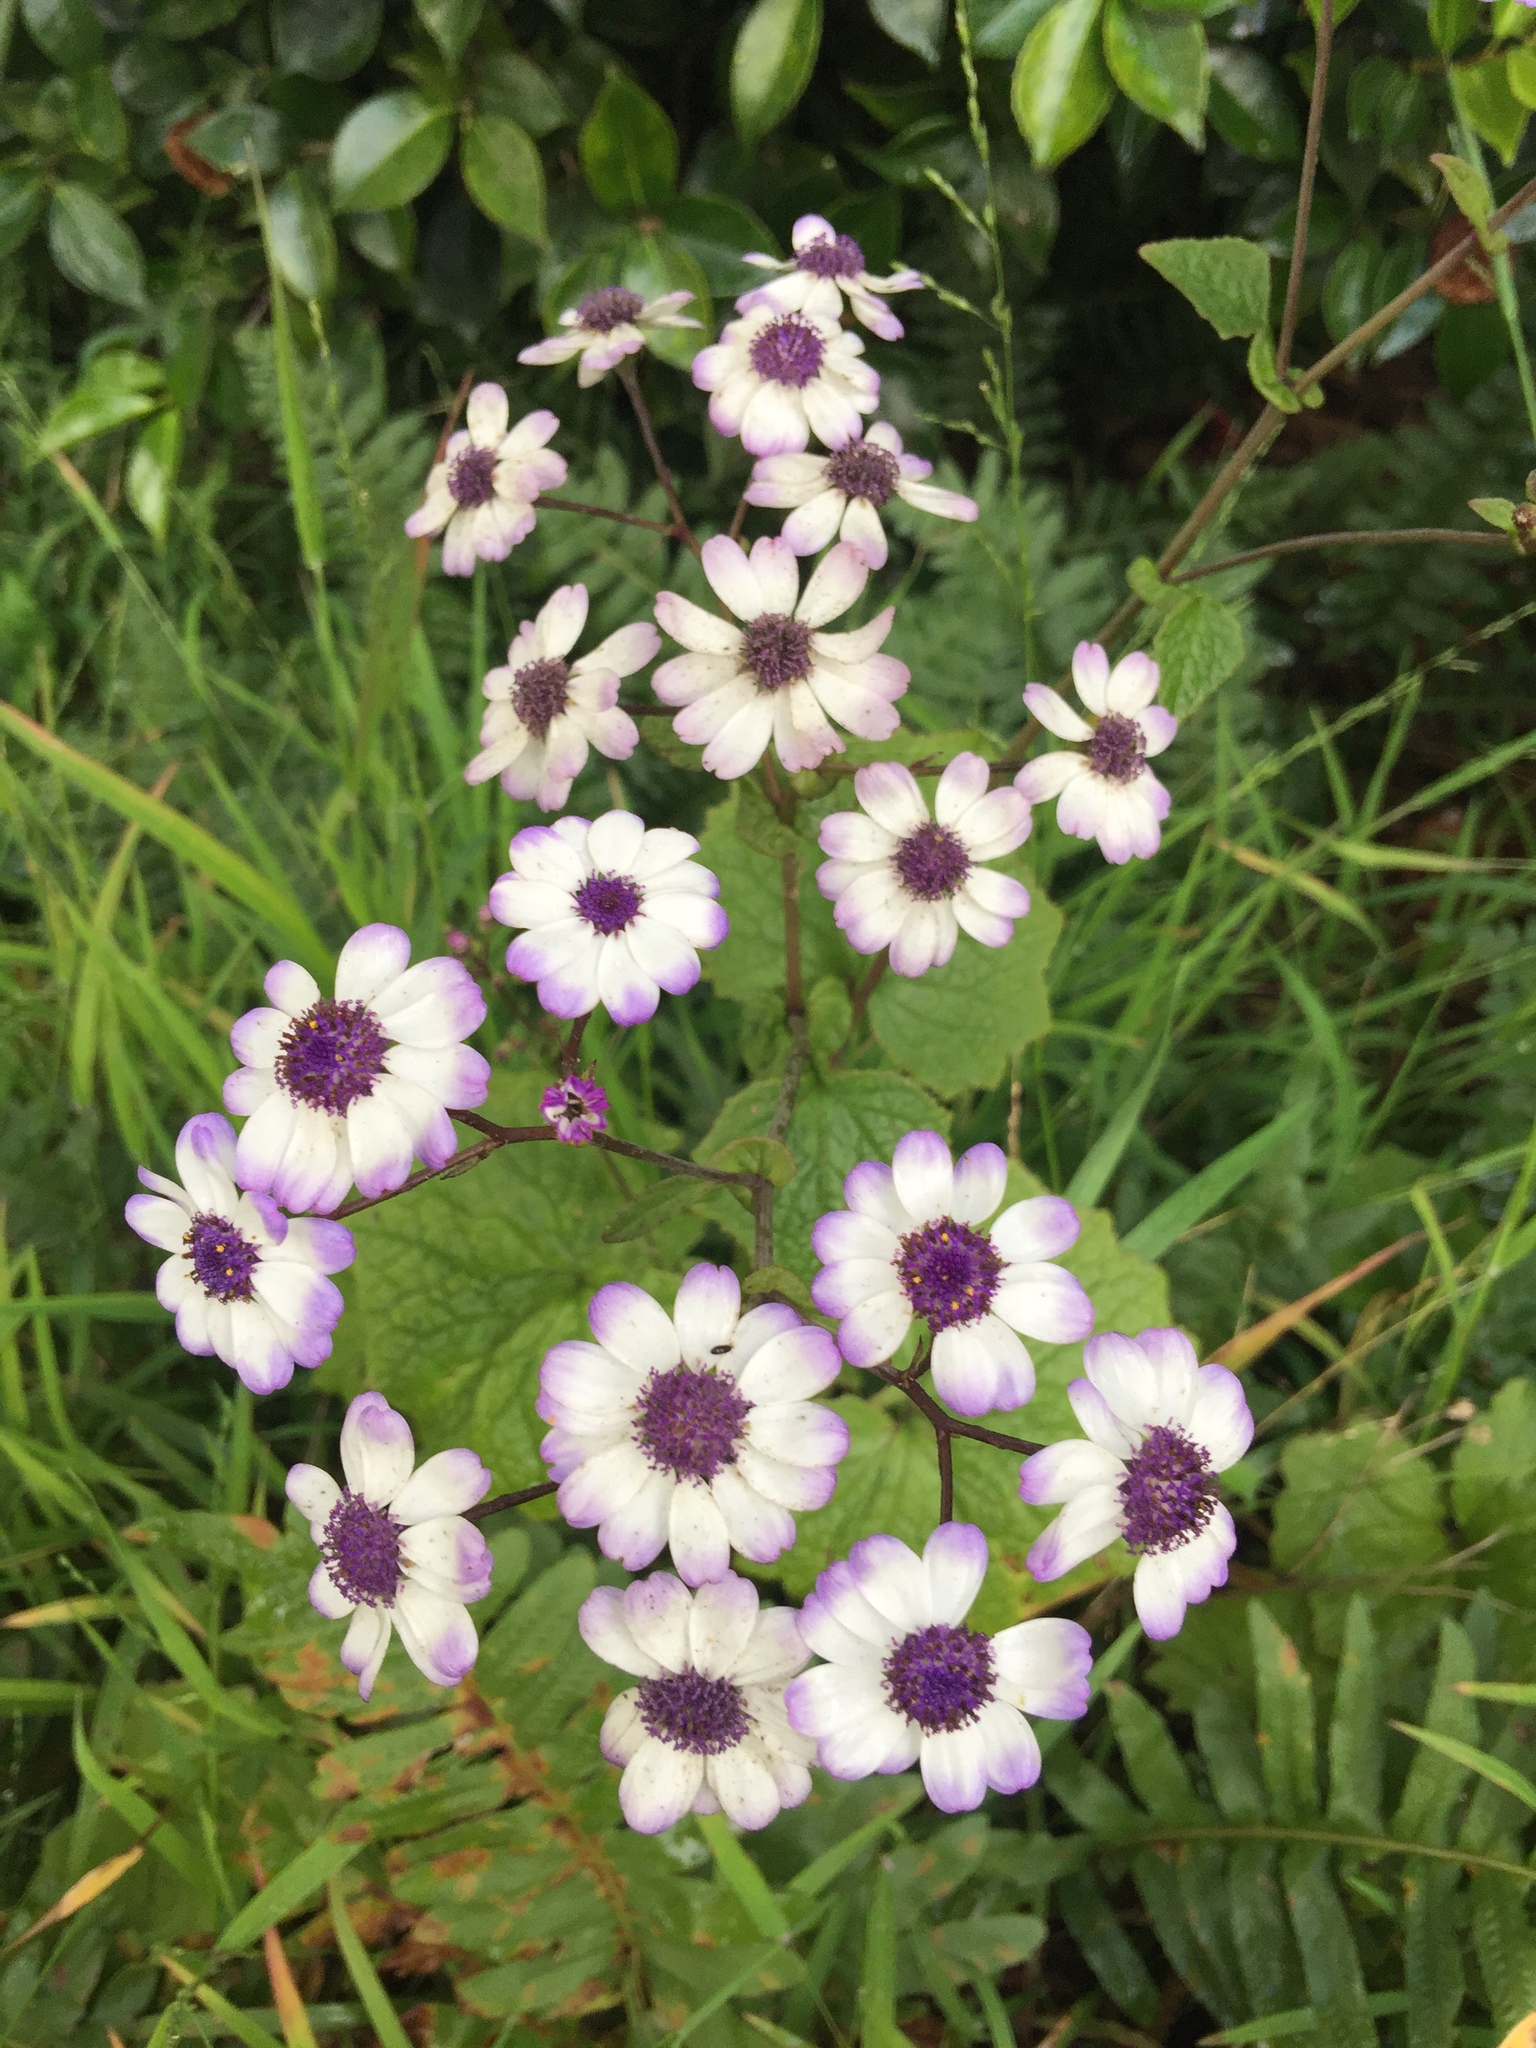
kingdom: Plantae
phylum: Tracheophyta
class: Magnoliopsida
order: Asterales
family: Asteraceae
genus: Pericallis
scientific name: Pericallis hybrida
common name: Cineraria
